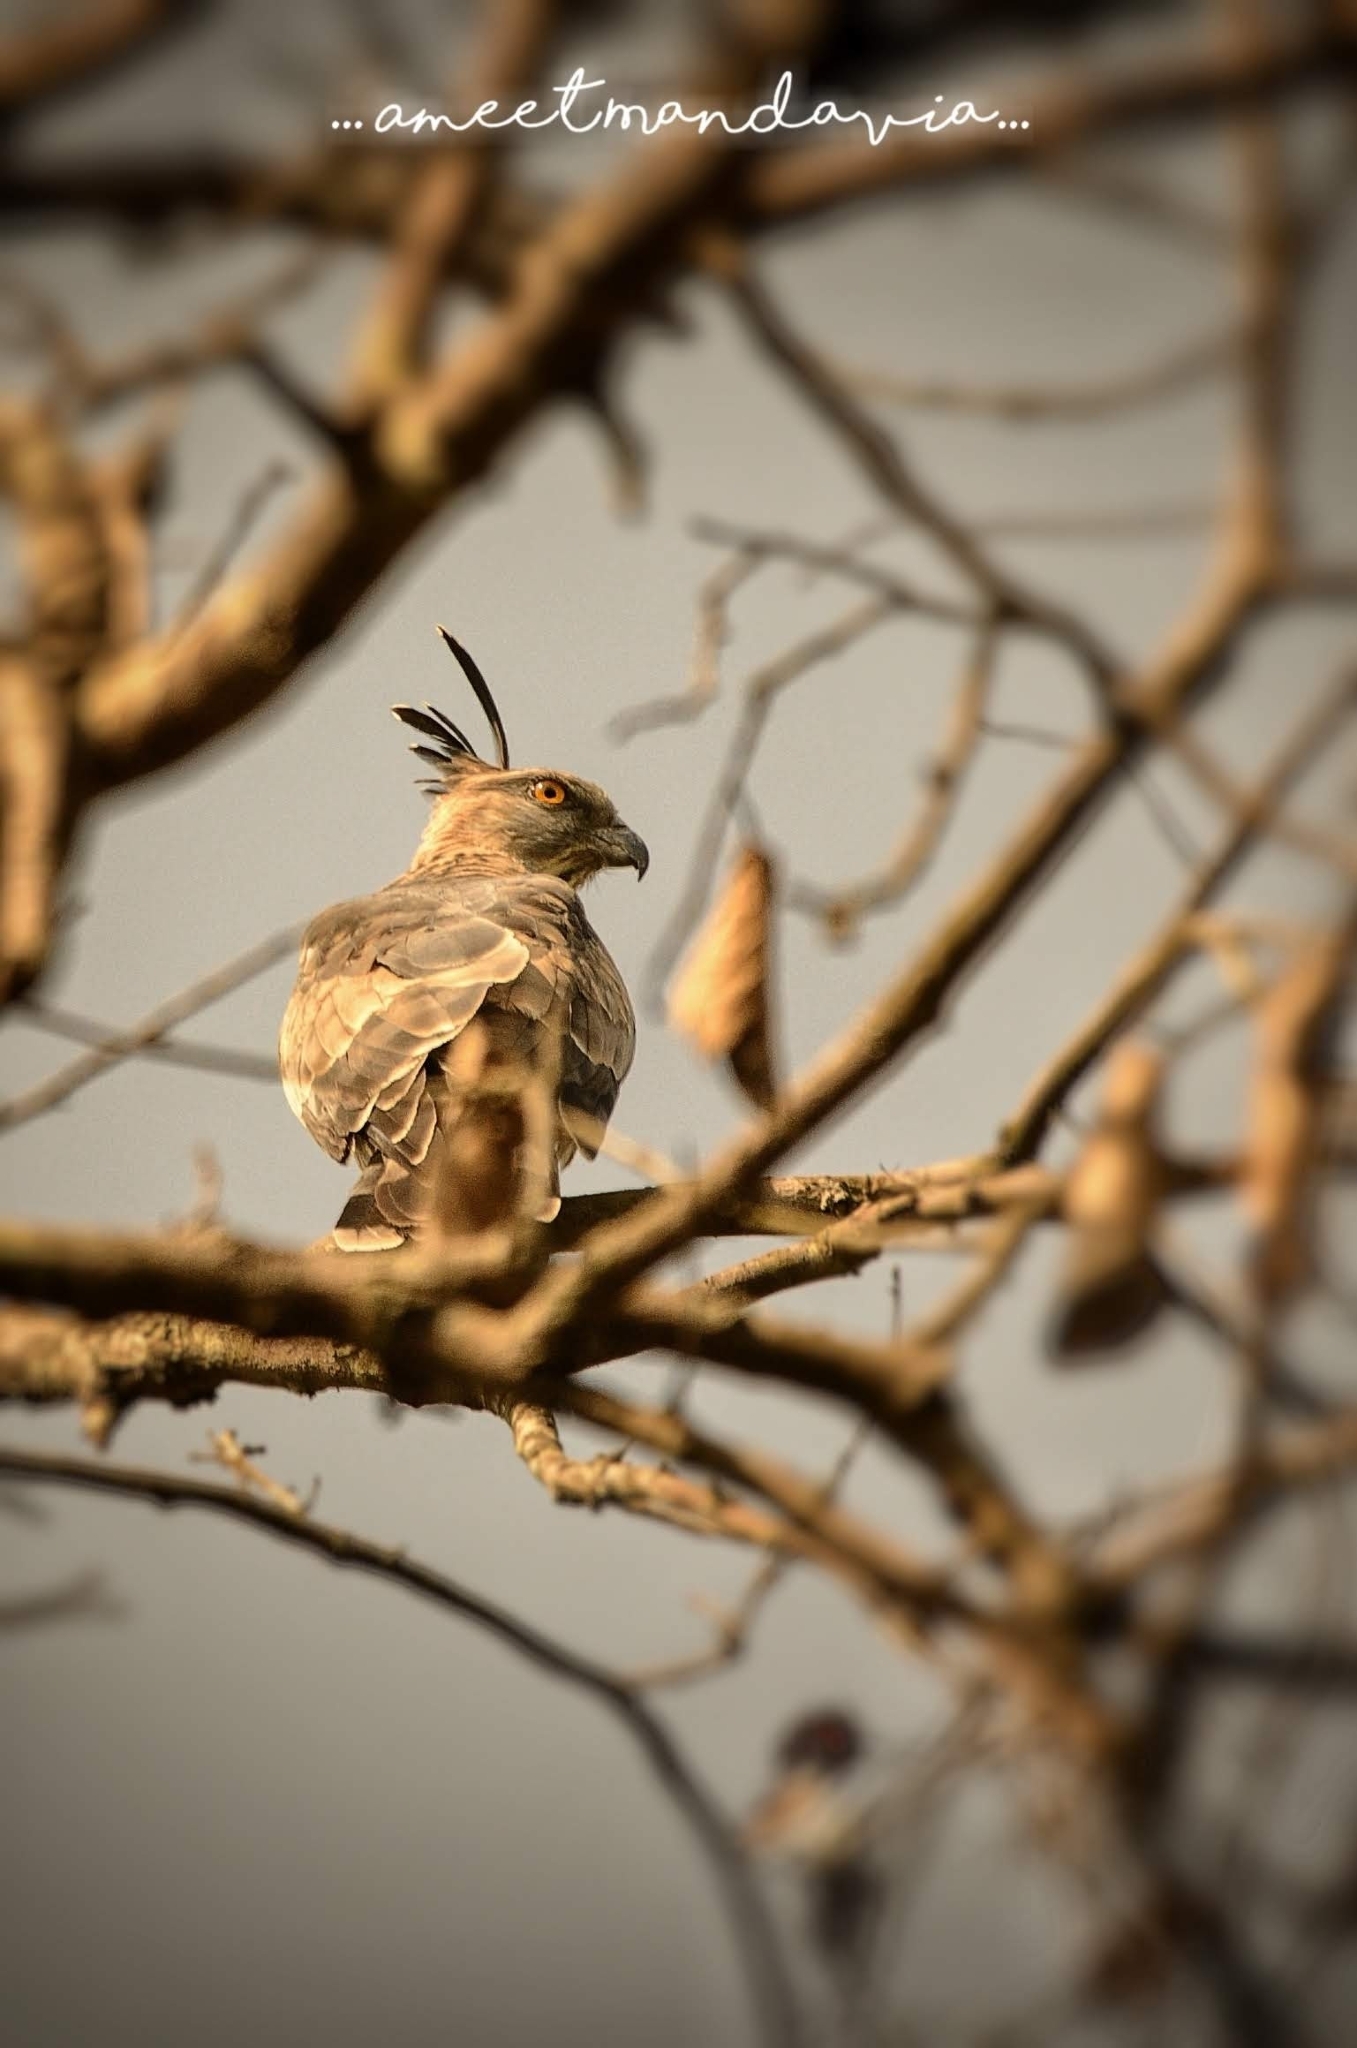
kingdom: Animalia
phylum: Chordata
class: Aves
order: Accipitriformes
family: Accipitridae
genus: Aviceda
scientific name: Aviceda jerdoni
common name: Jerdon's baza
